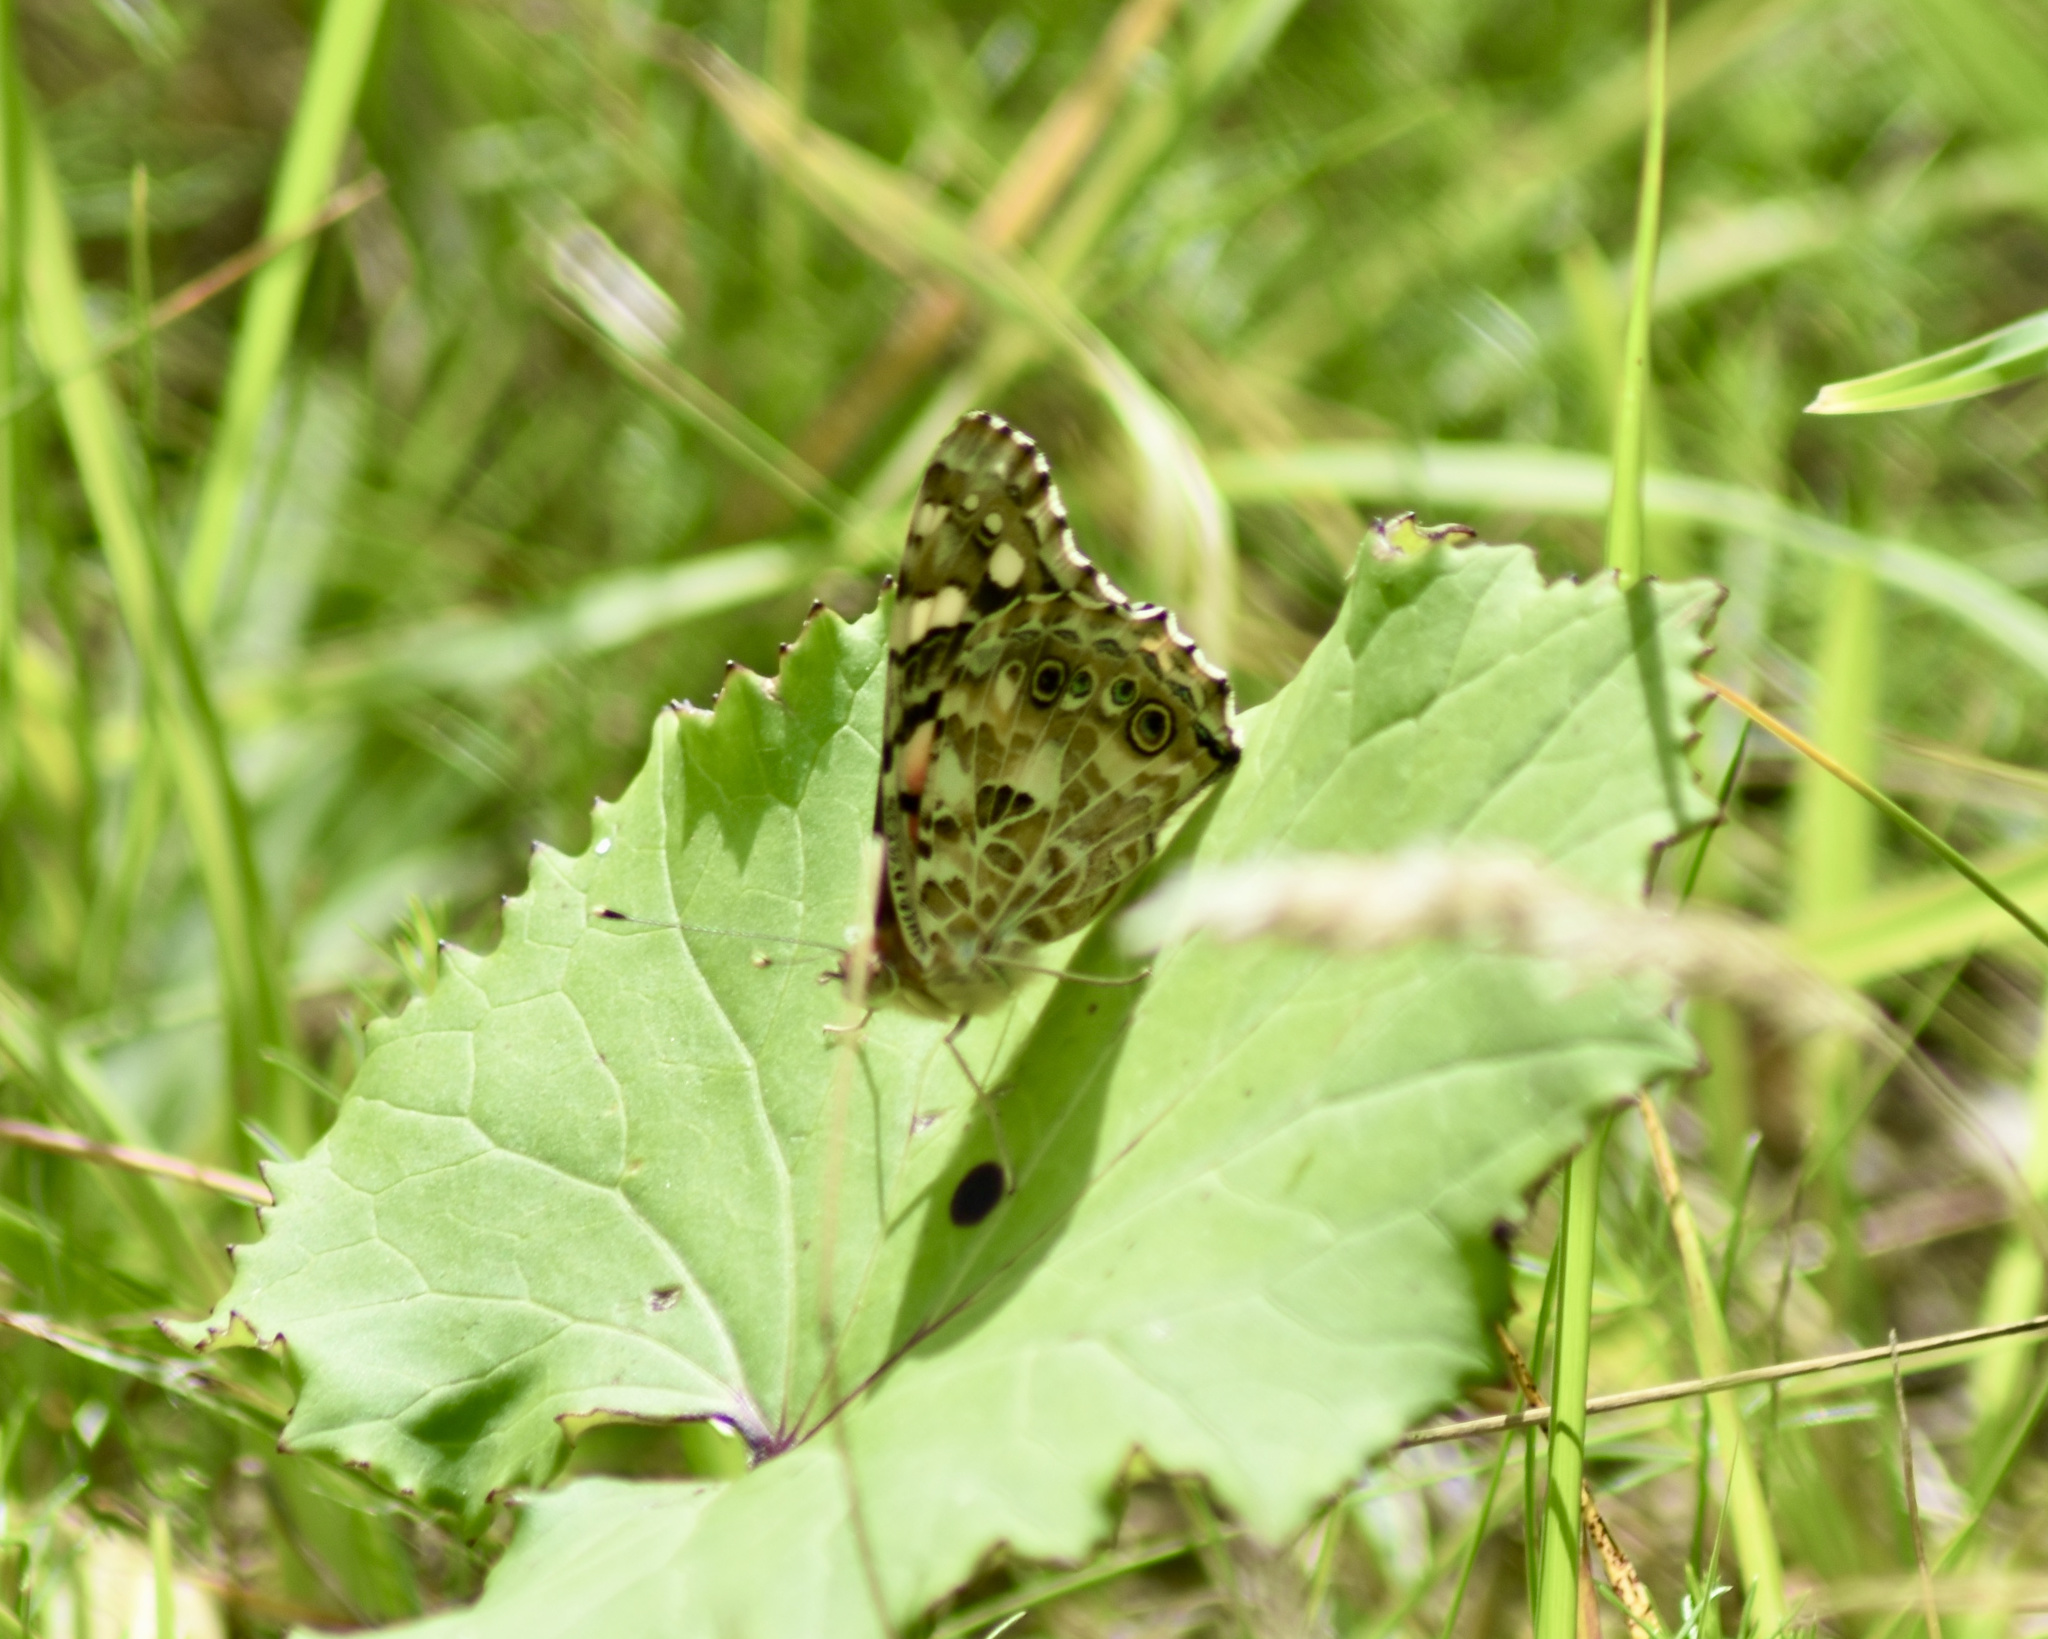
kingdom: Animalia
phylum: Arthropoda
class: Insecta
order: Lepidoptera
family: Nymphalidae
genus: Vanessa
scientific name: Vanessa cardui
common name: Painted lady
